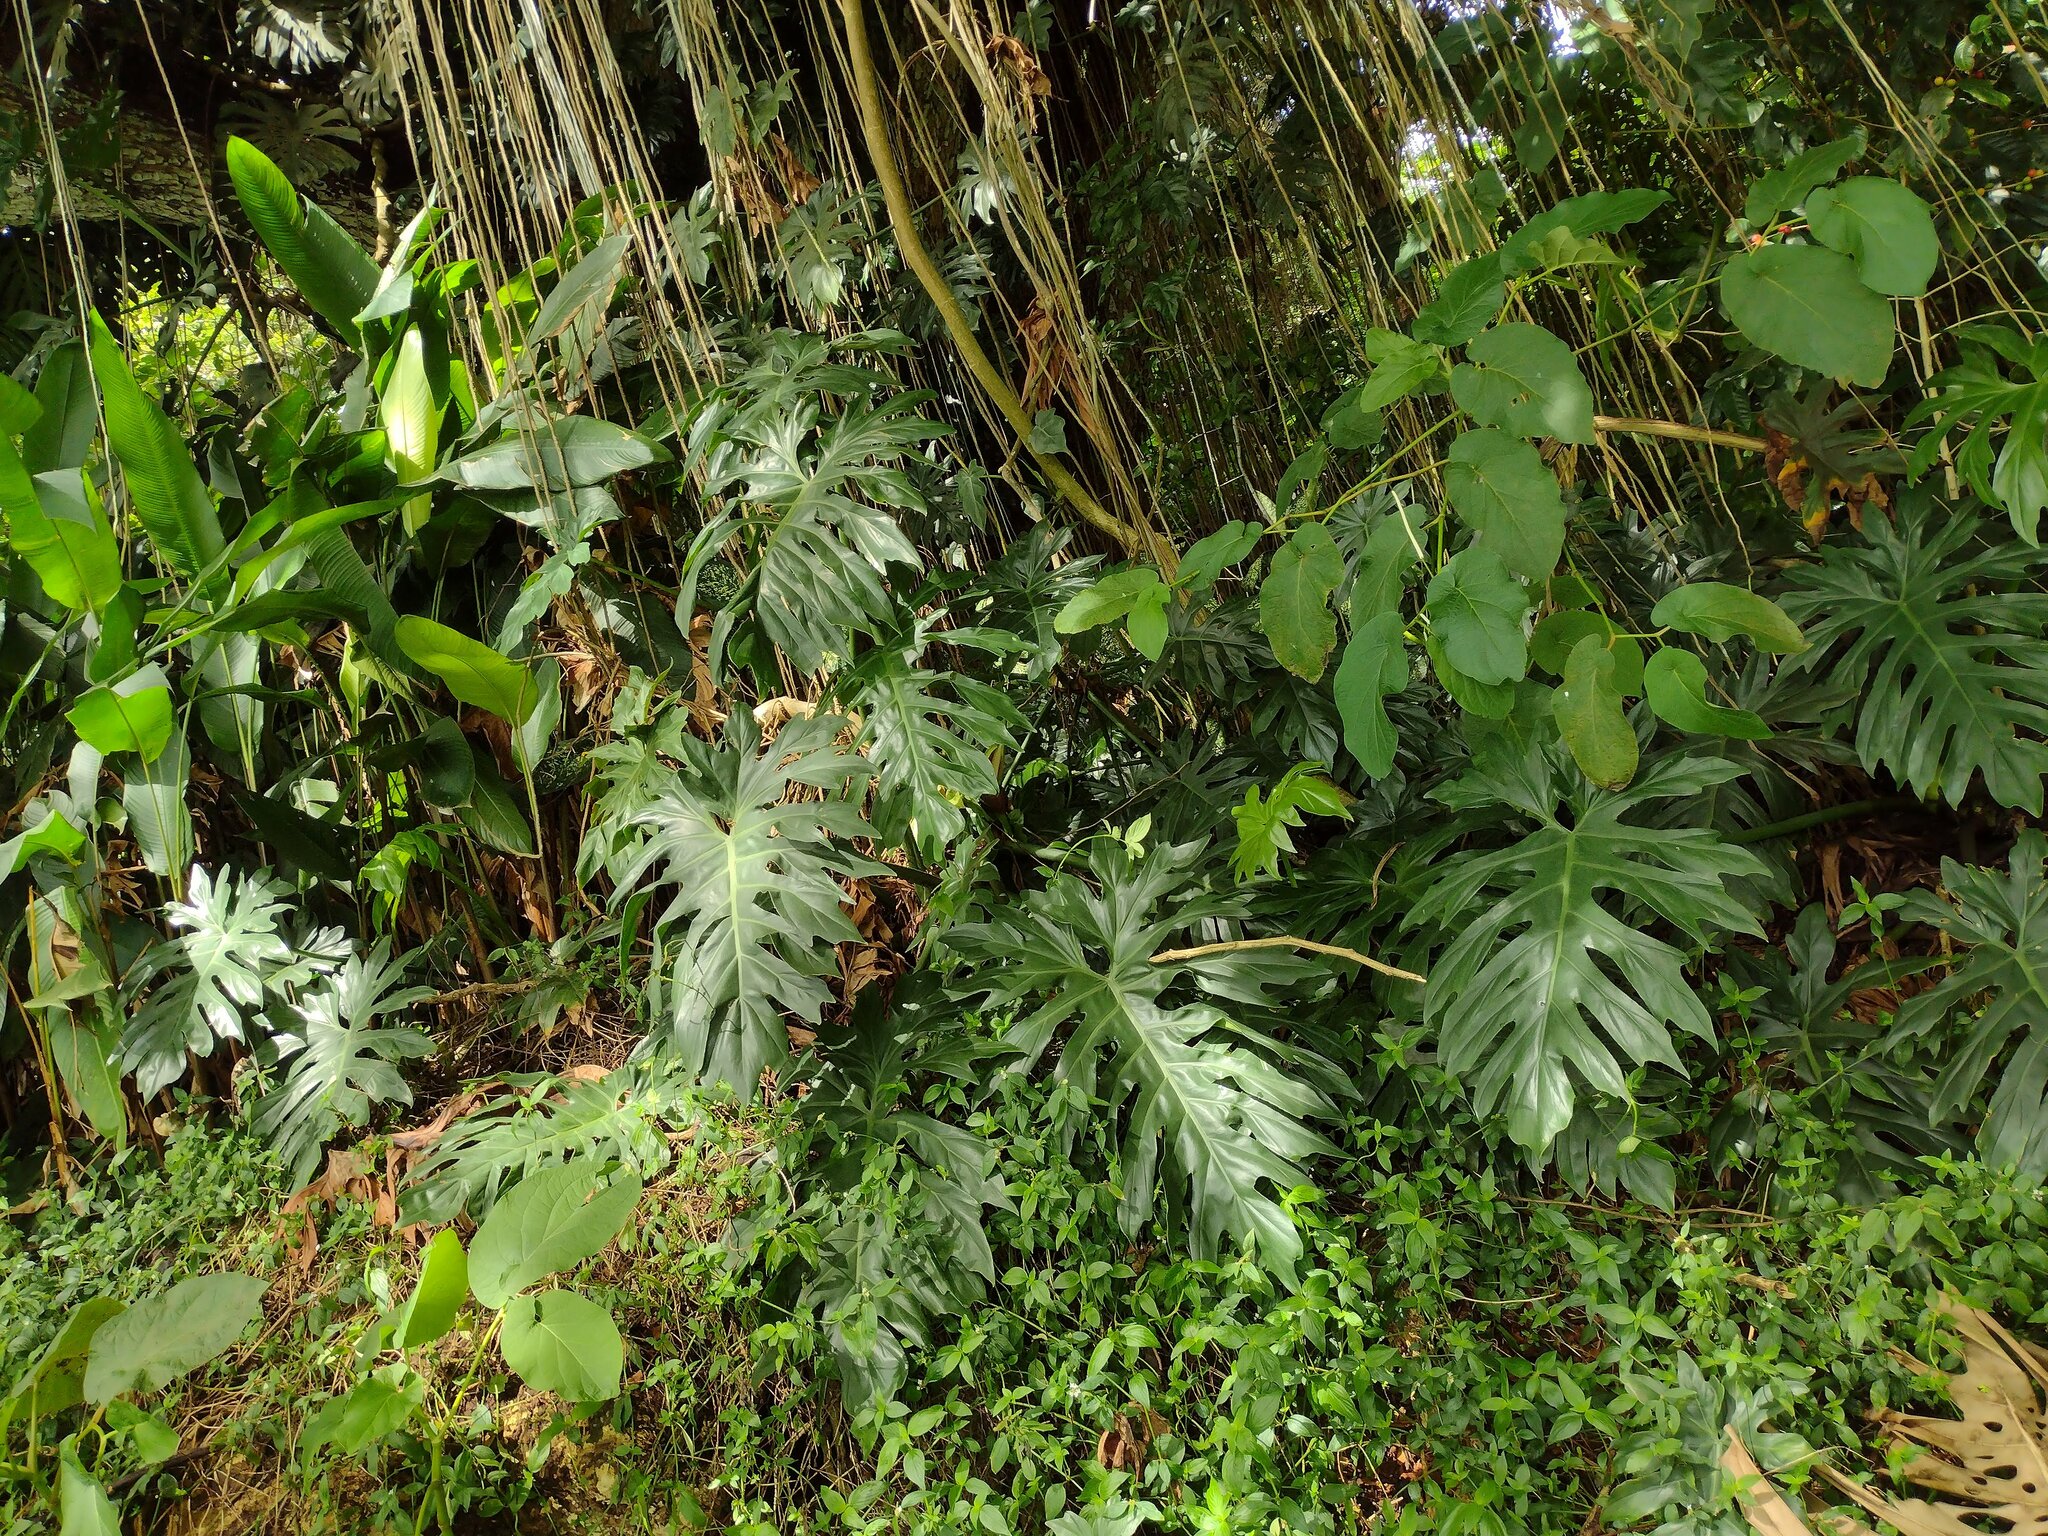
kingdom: Plantae
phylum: Tracheophyta
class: Liliopsida
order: Alismatales
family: Araceae
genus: Philodendron
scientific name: Philodendron radiatum
